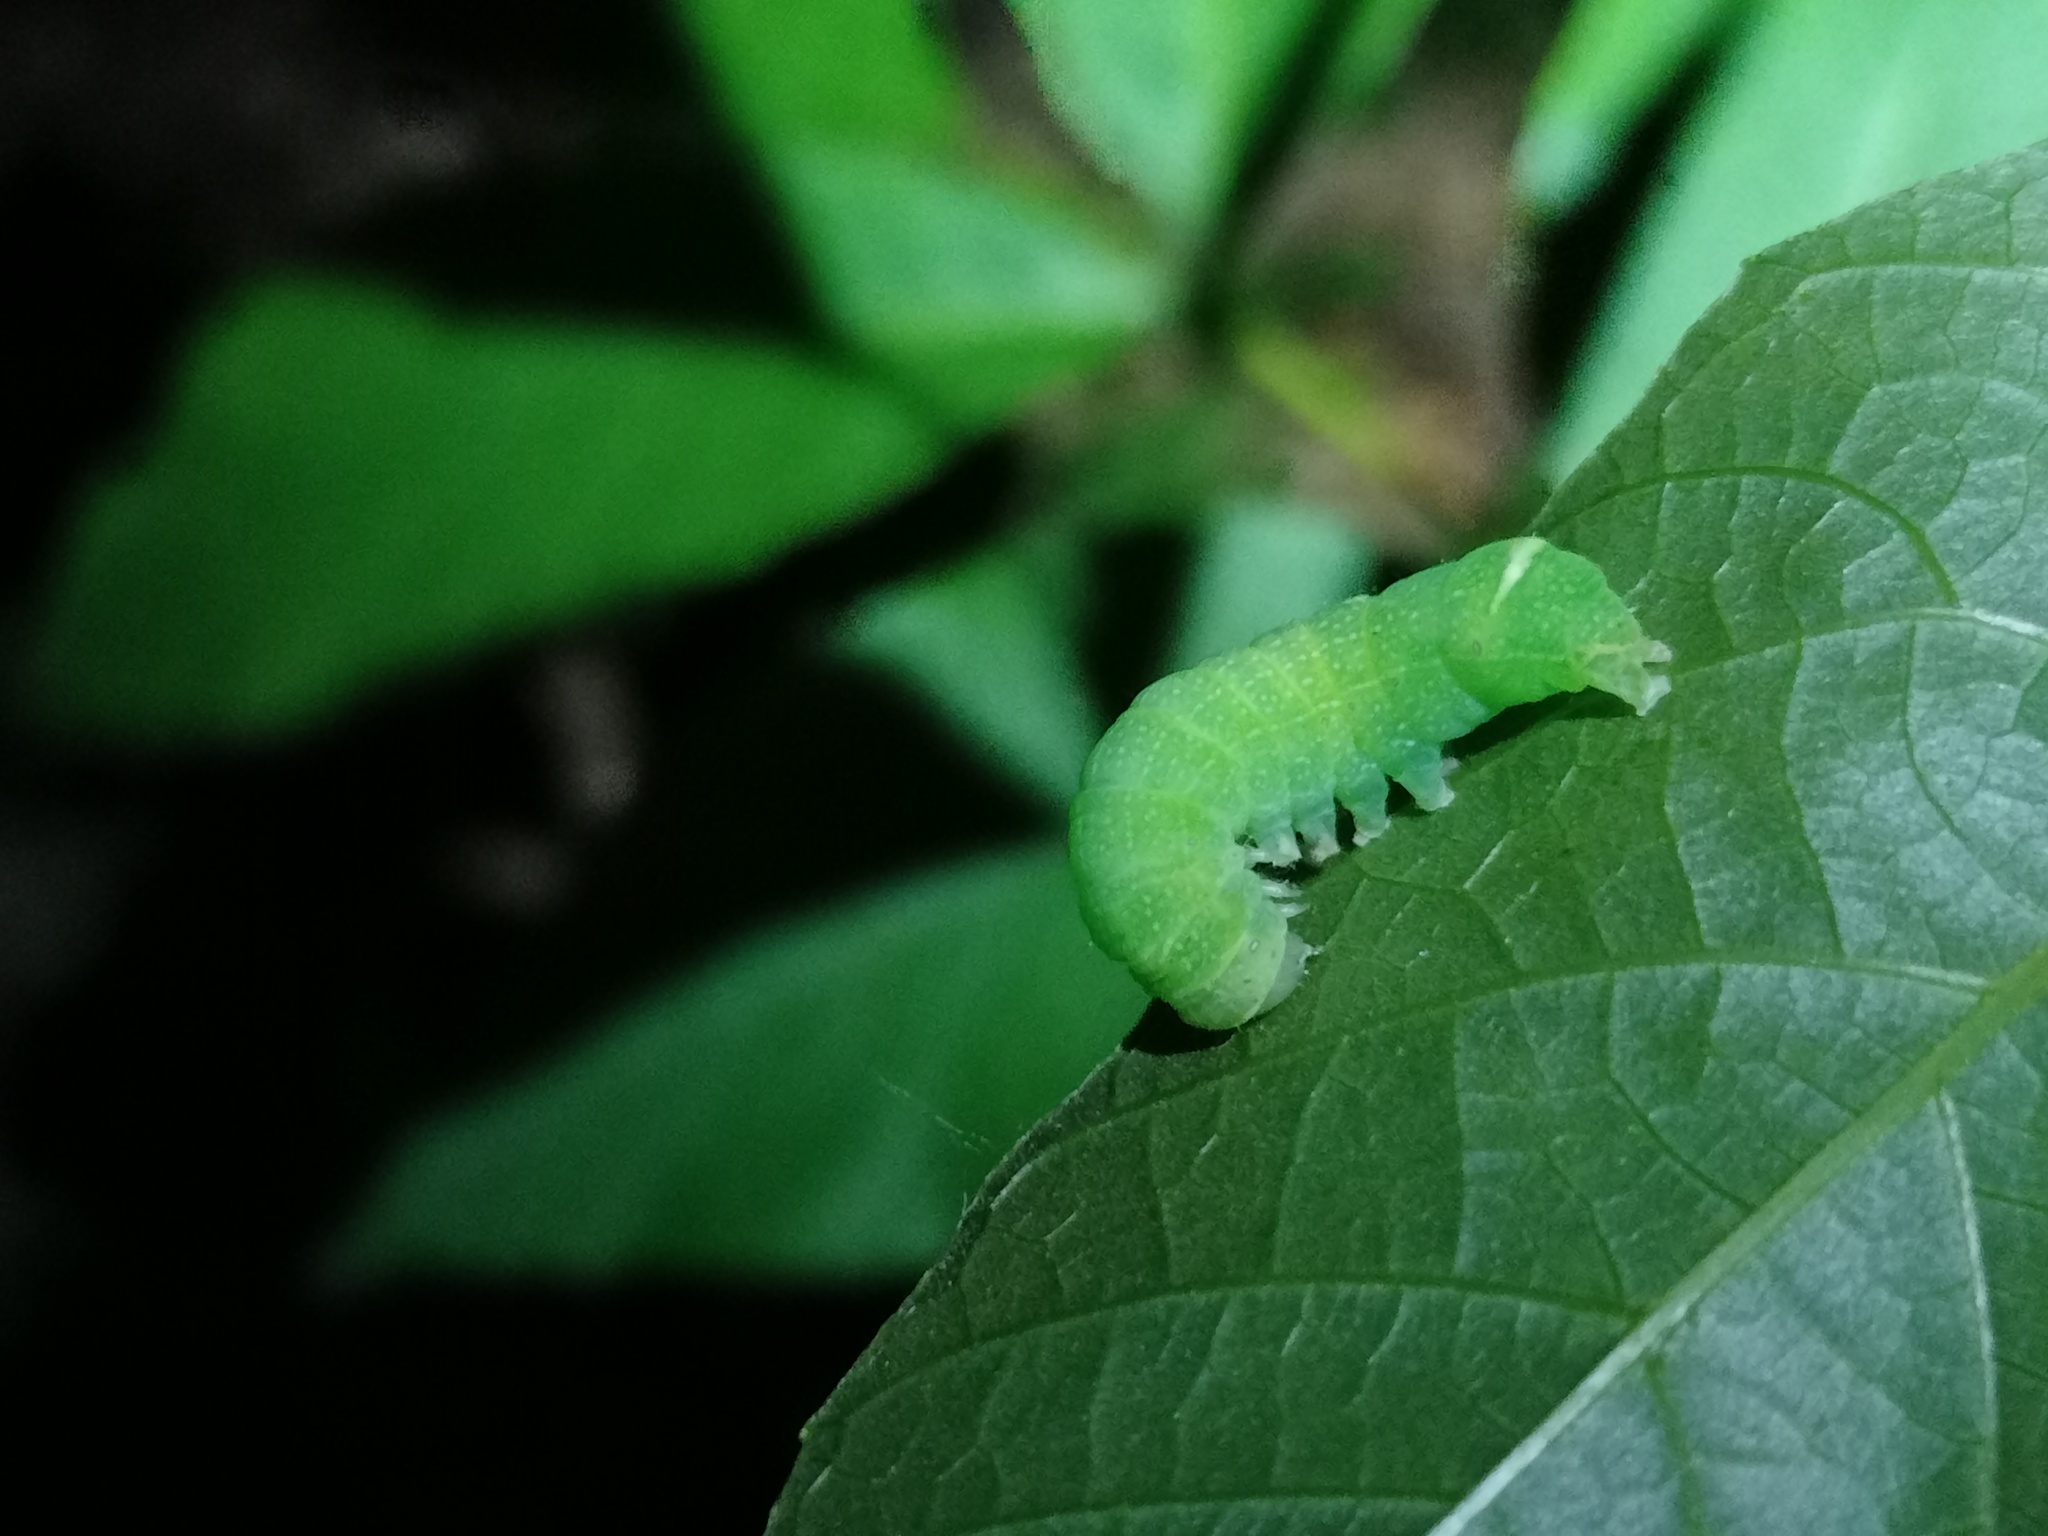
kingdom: Animalia
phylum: Arthropoda
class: Insecta
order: Lepidoptera
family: Noctuidae
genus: Orthosia
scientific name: Orthosia cerasi
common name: Common quaker
